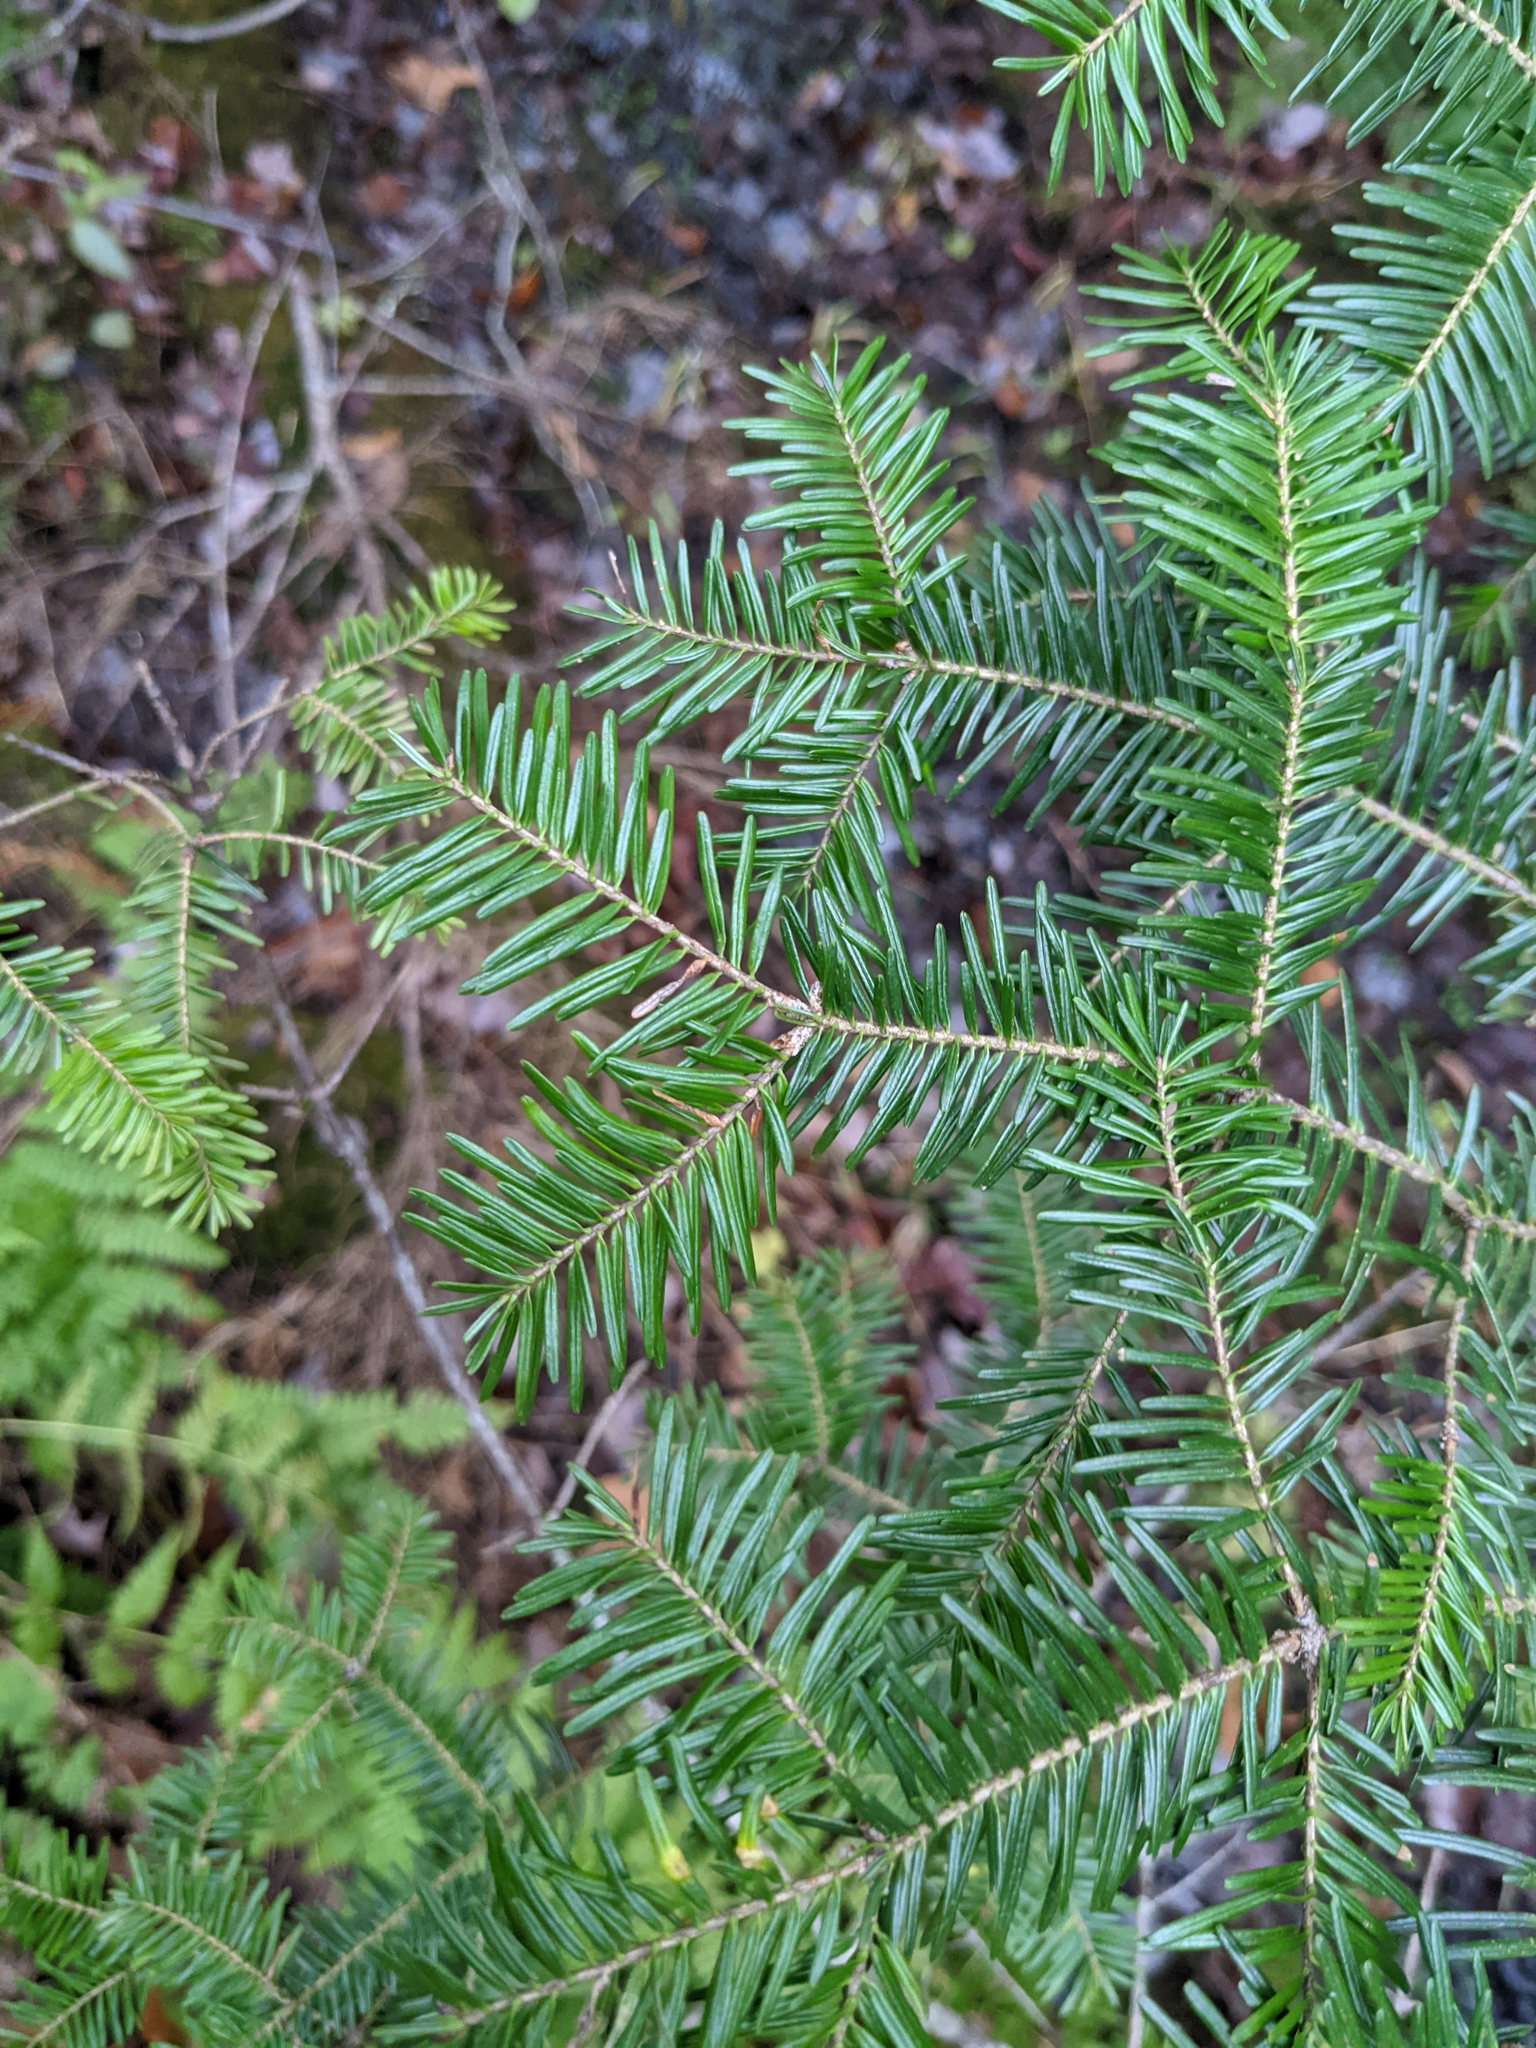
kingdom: Plantae
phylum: Tracheophyta
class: Pinopsida
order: Pinales
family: Pinaceae
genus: Abies
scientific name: Abies balsamea
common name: Balsam fir
